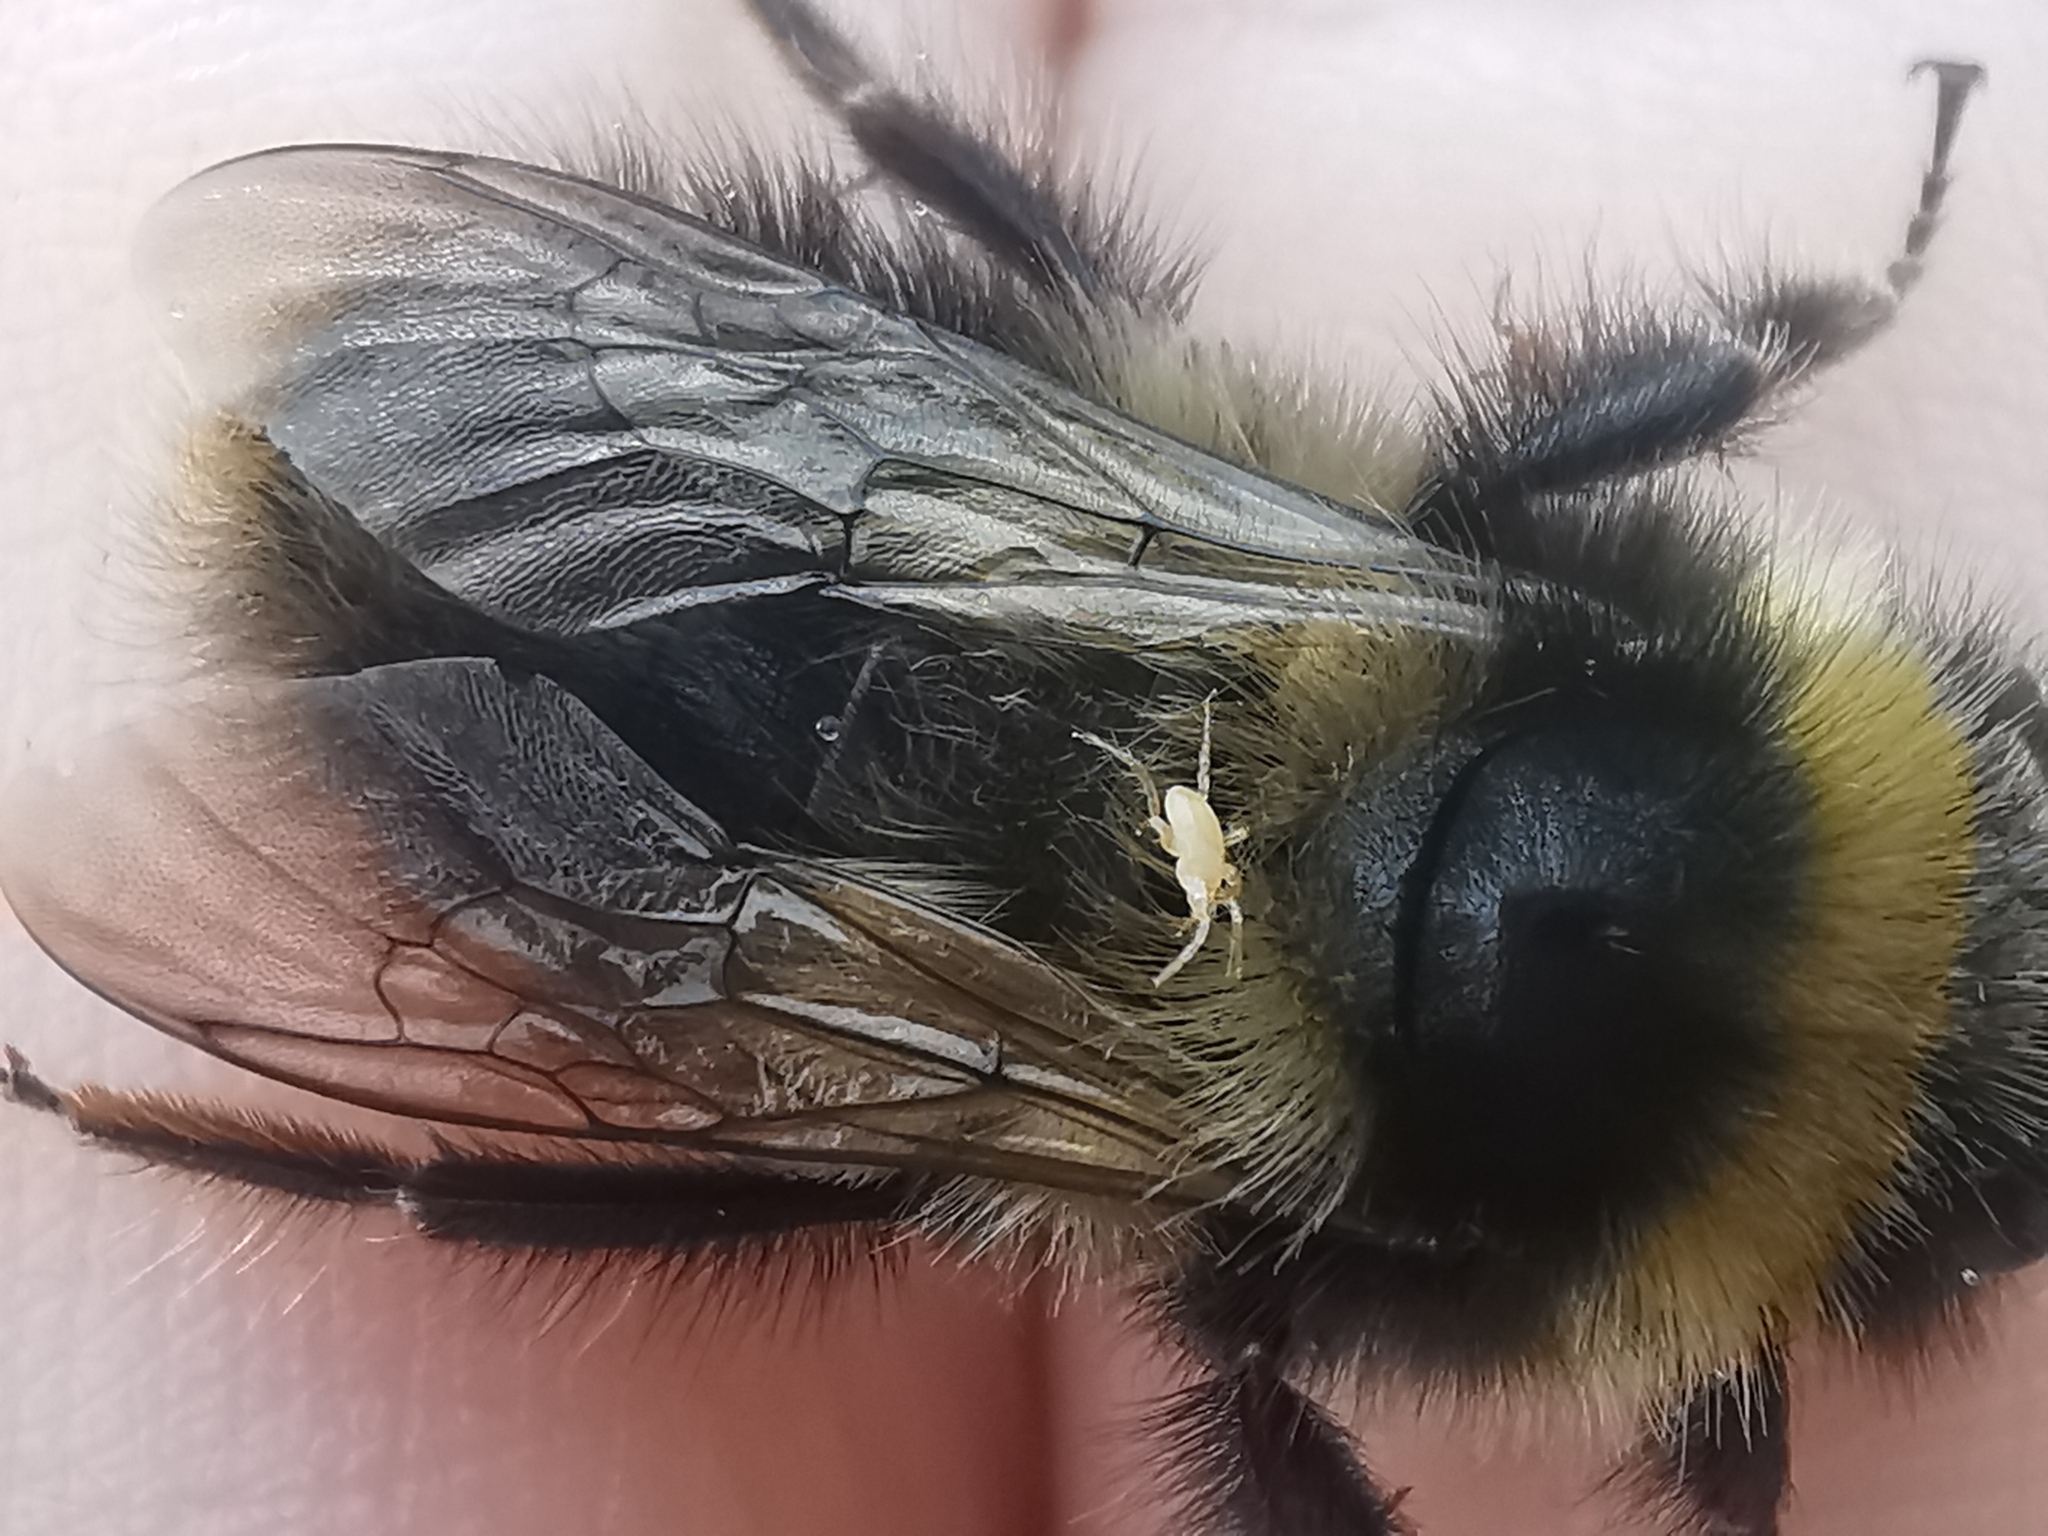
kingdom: Animalia
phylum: Arthropoda
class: Arachnida
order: Mesostigmata
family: Parasitidae
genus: Parasitellus
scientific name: Parasitellus fucorum
